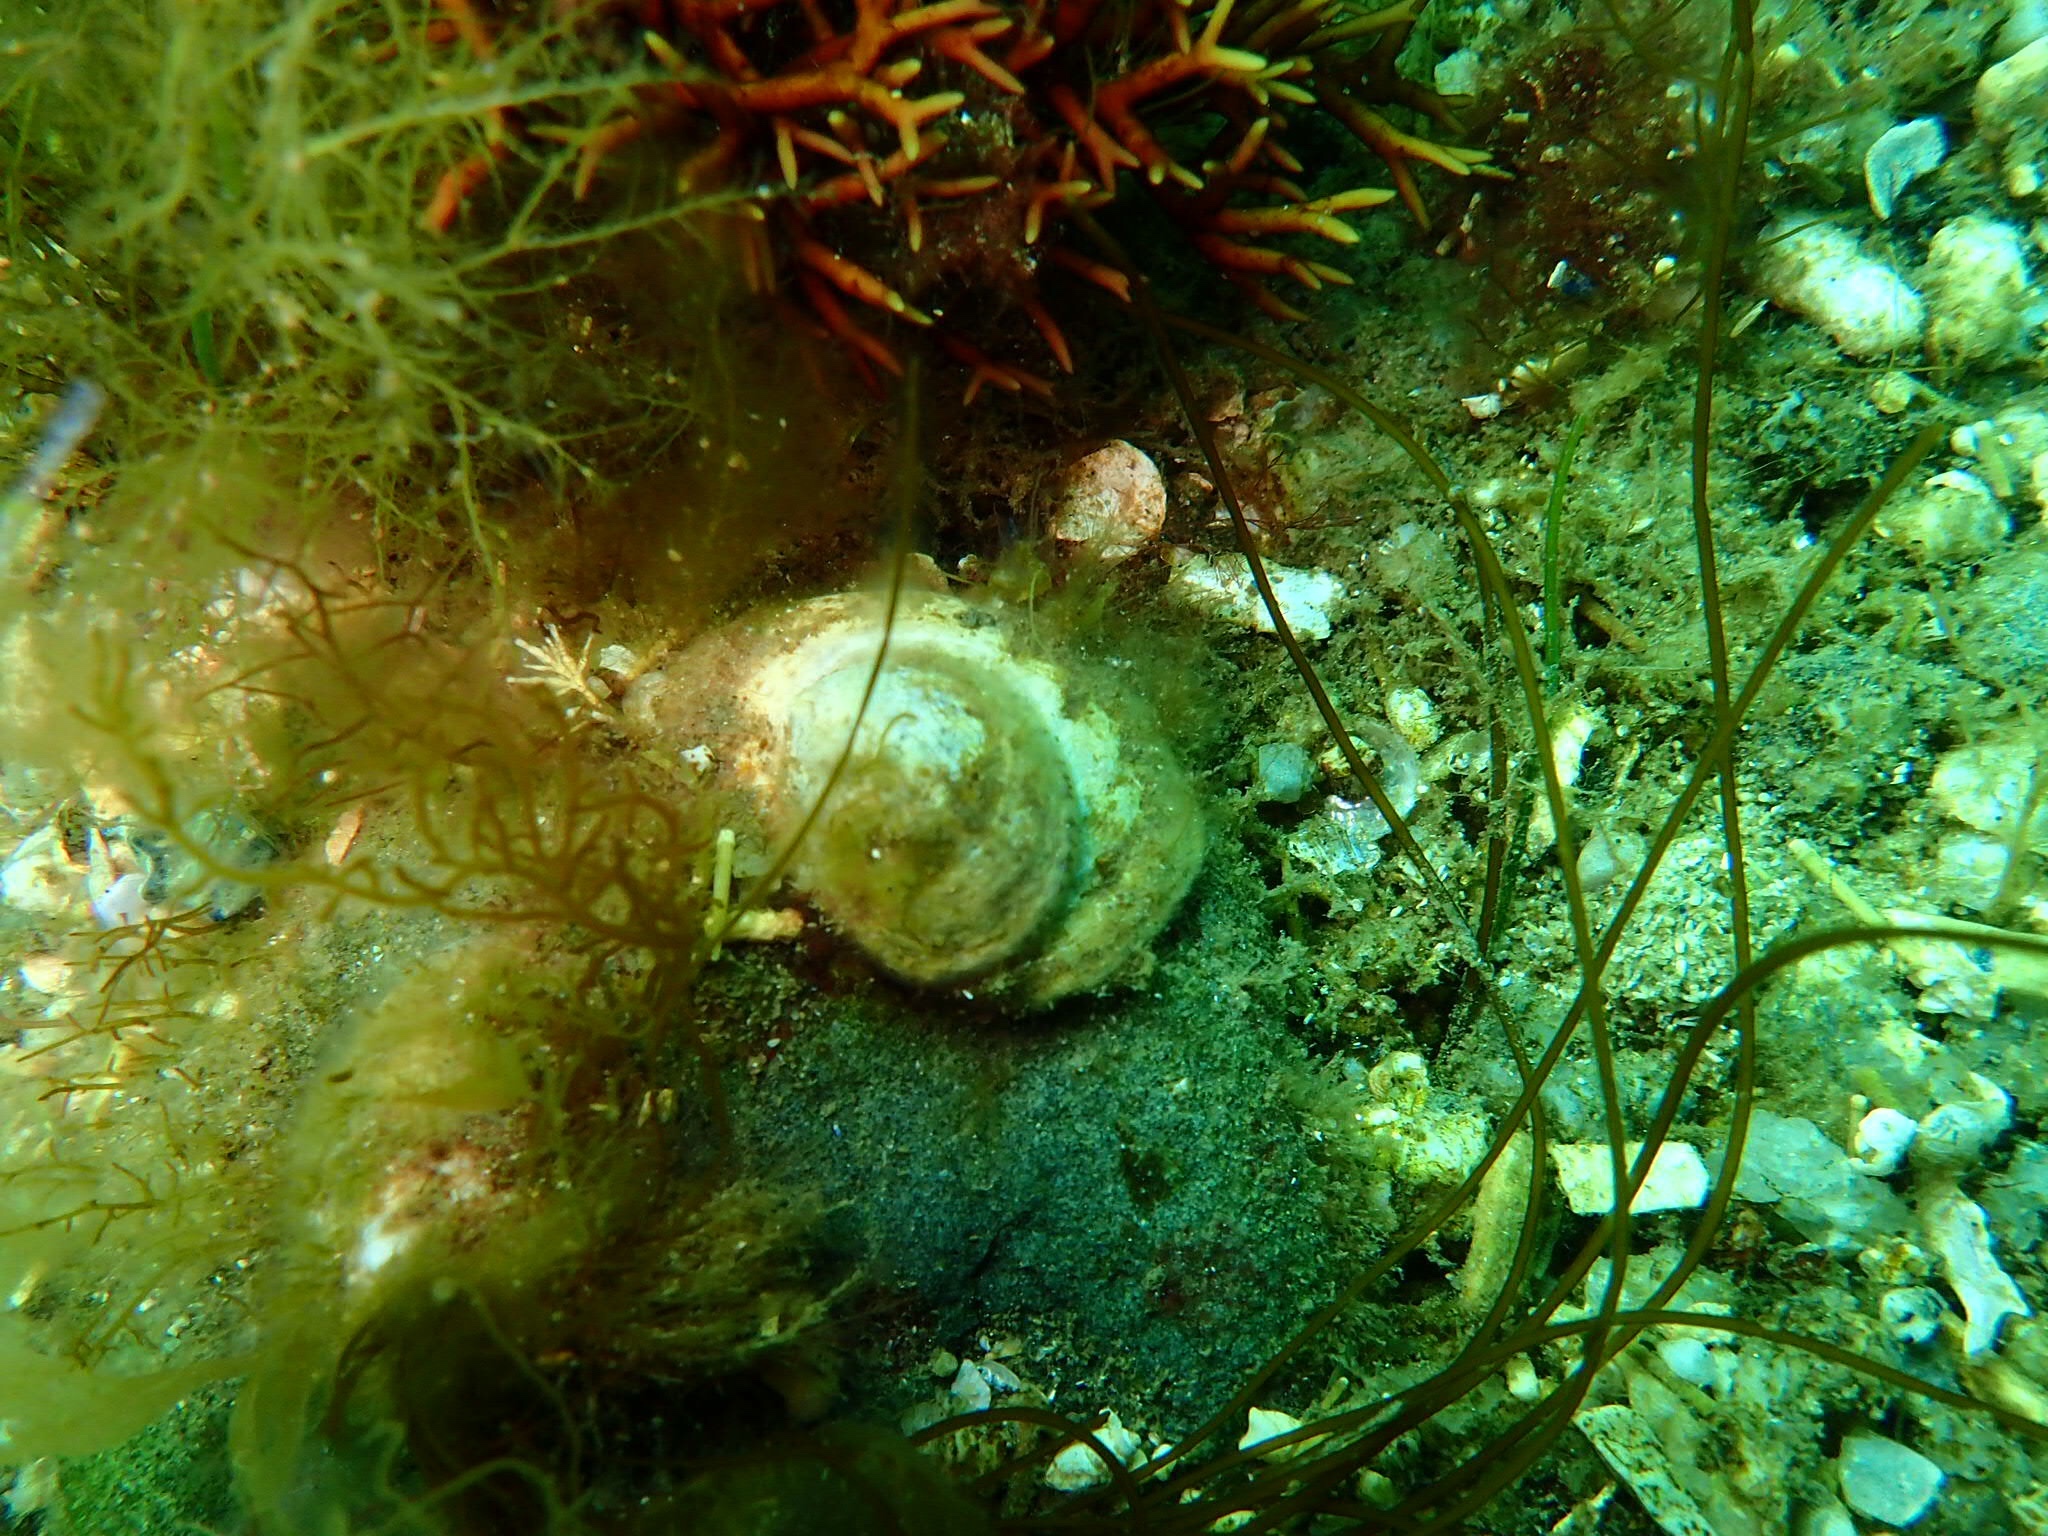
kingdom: Animalia
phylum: Mollusca
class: Gastropoda
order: Littorinimorpha
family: Calyptraeidae
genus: Crepidula
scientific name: Crepidula fornicata
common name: Slipper limpet
